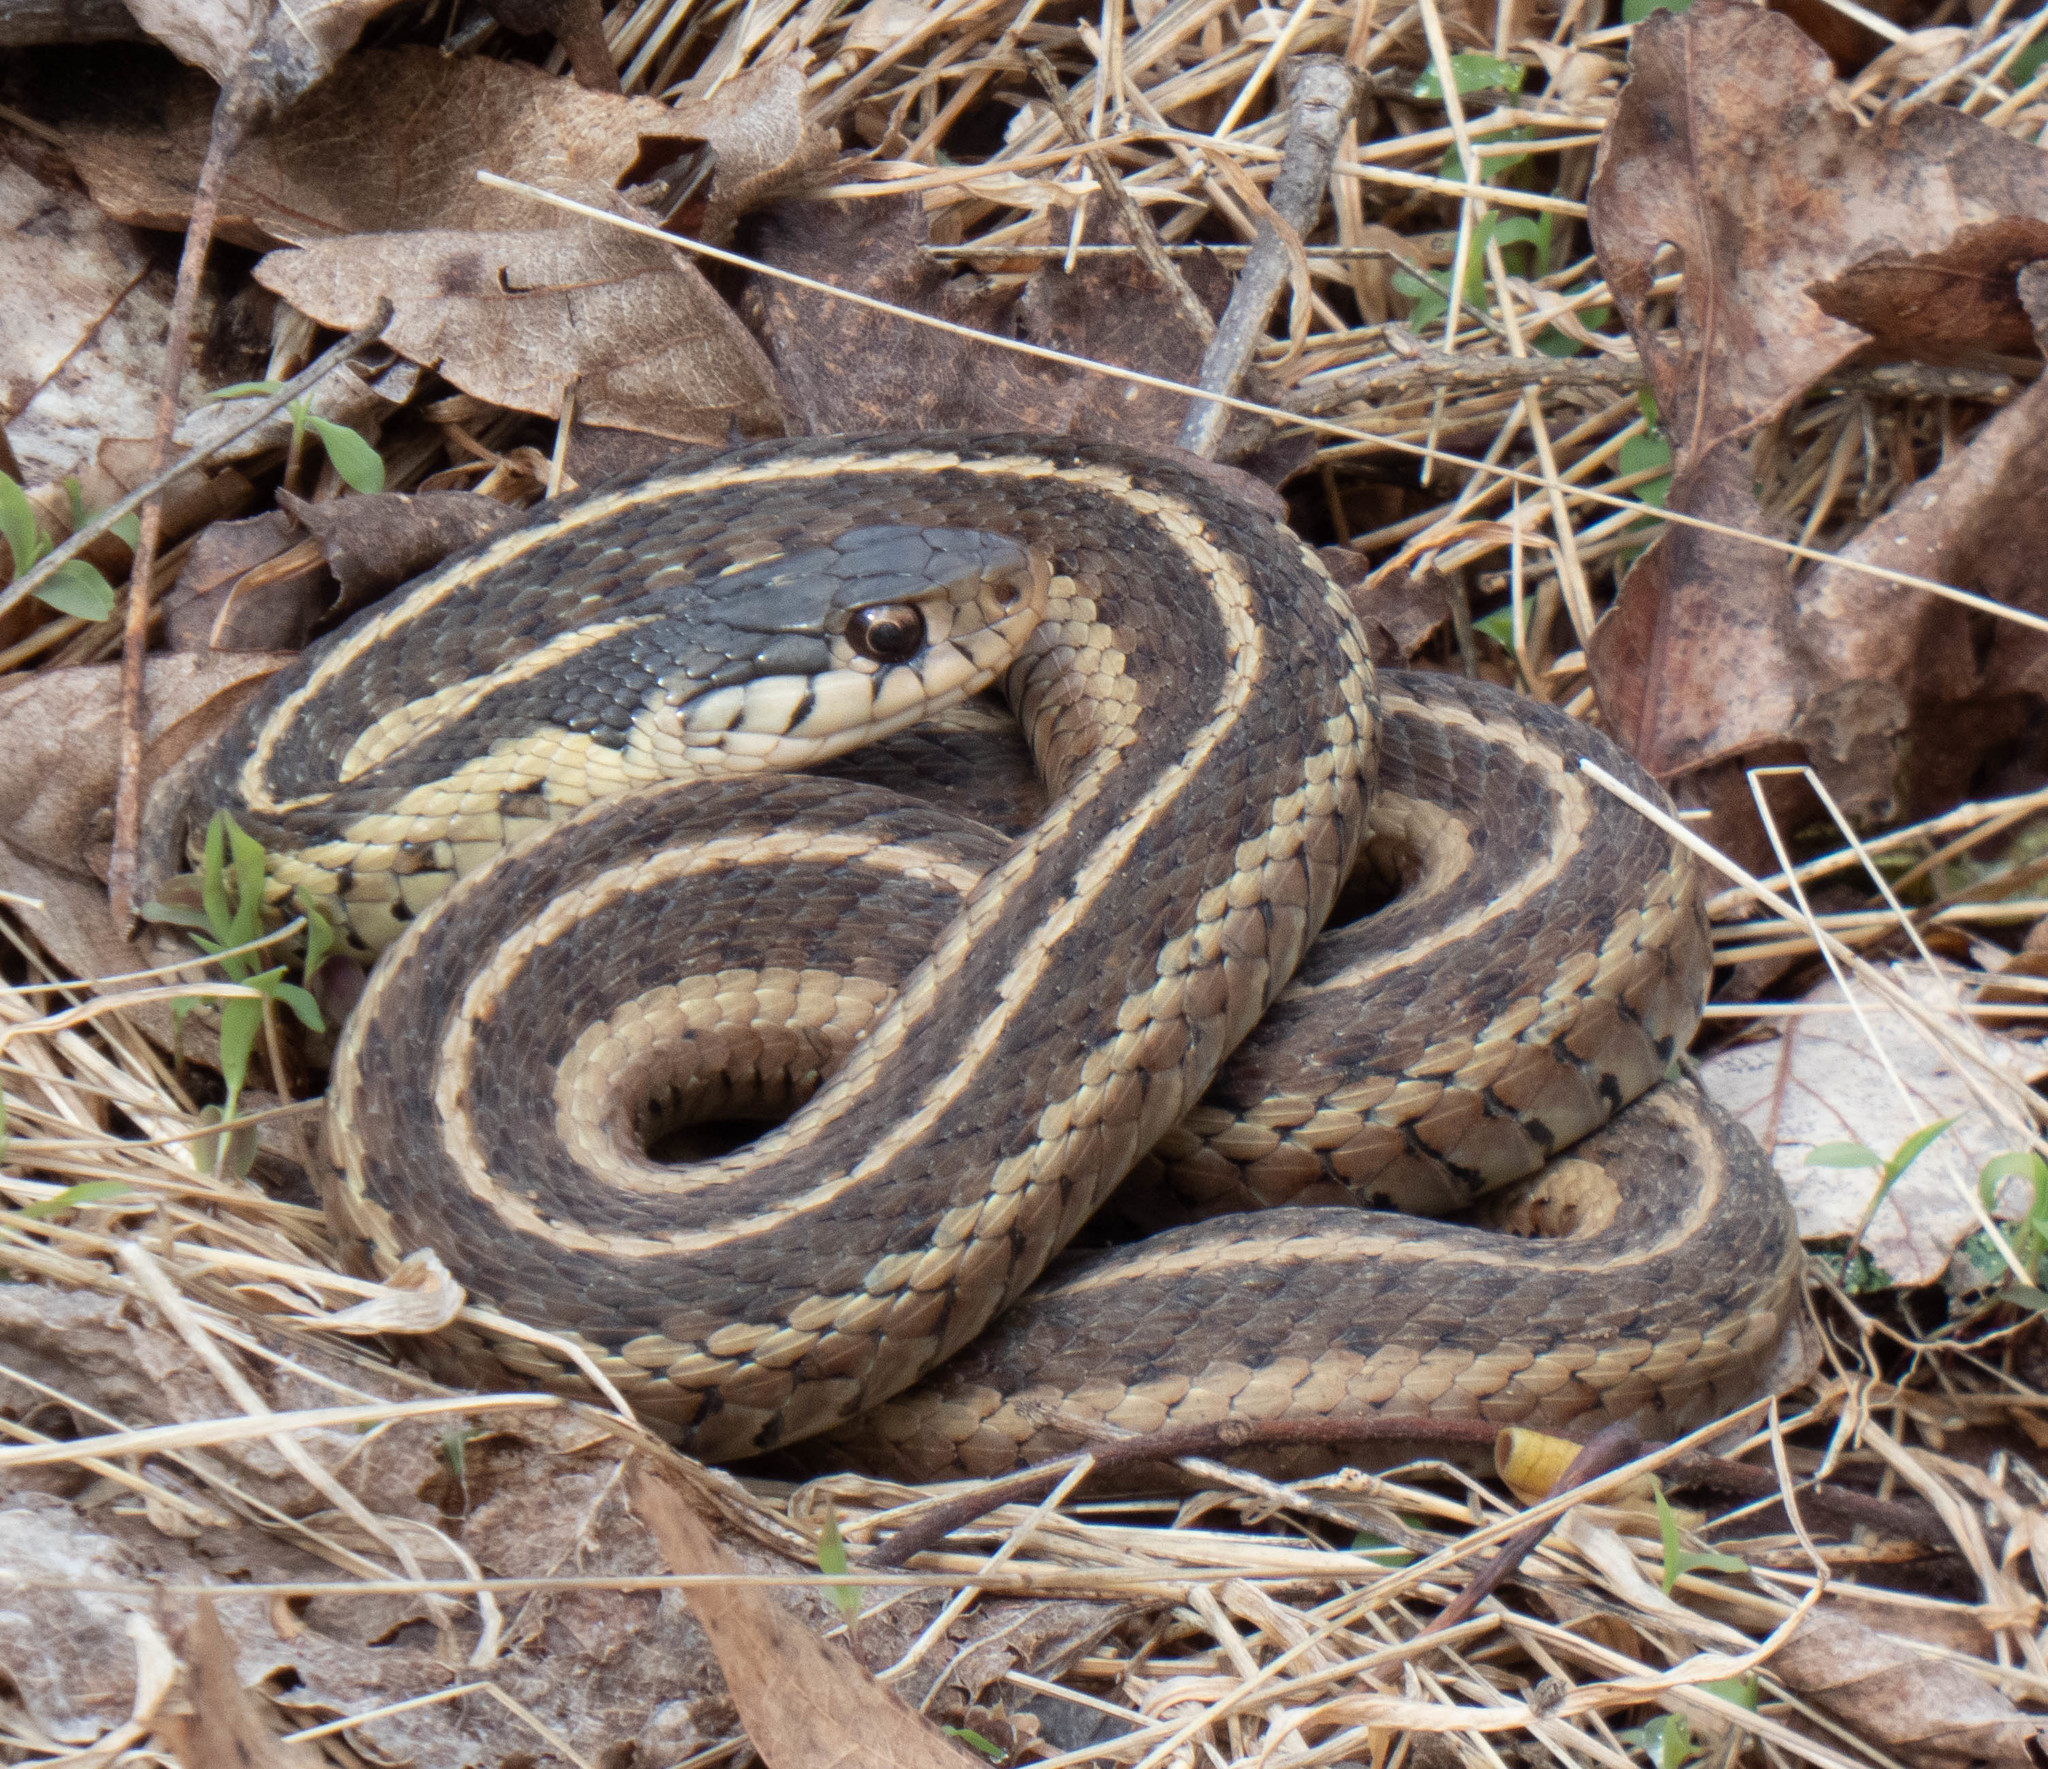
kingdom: Animalia
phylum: Chordata
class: Squamata
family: Colubridae
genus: Thamnophis
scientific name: Thamnophis sirtalis
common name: Common garter snake
